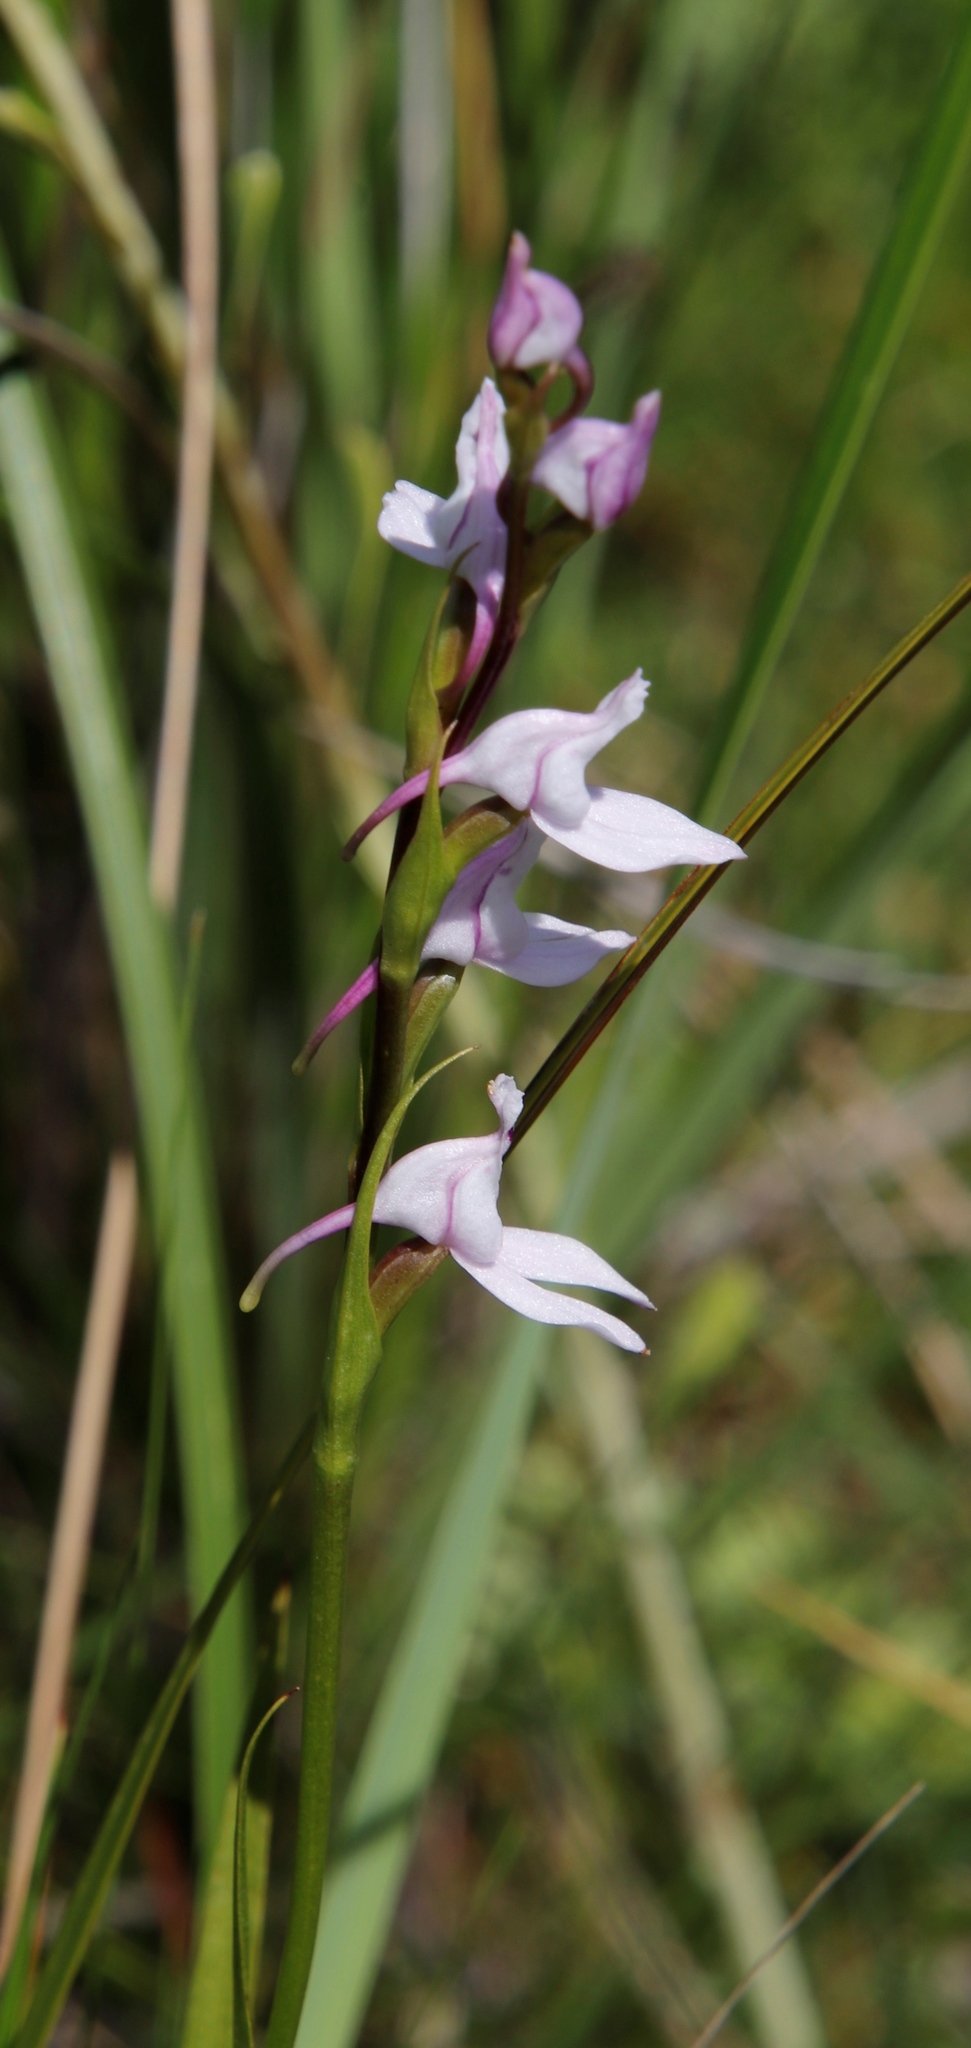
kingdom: Plantae
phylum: Tracheophyta
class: Liliopsida
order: Asparagales
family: Orchidaceae
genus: Brownleea
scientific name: Brownleea recurvata
